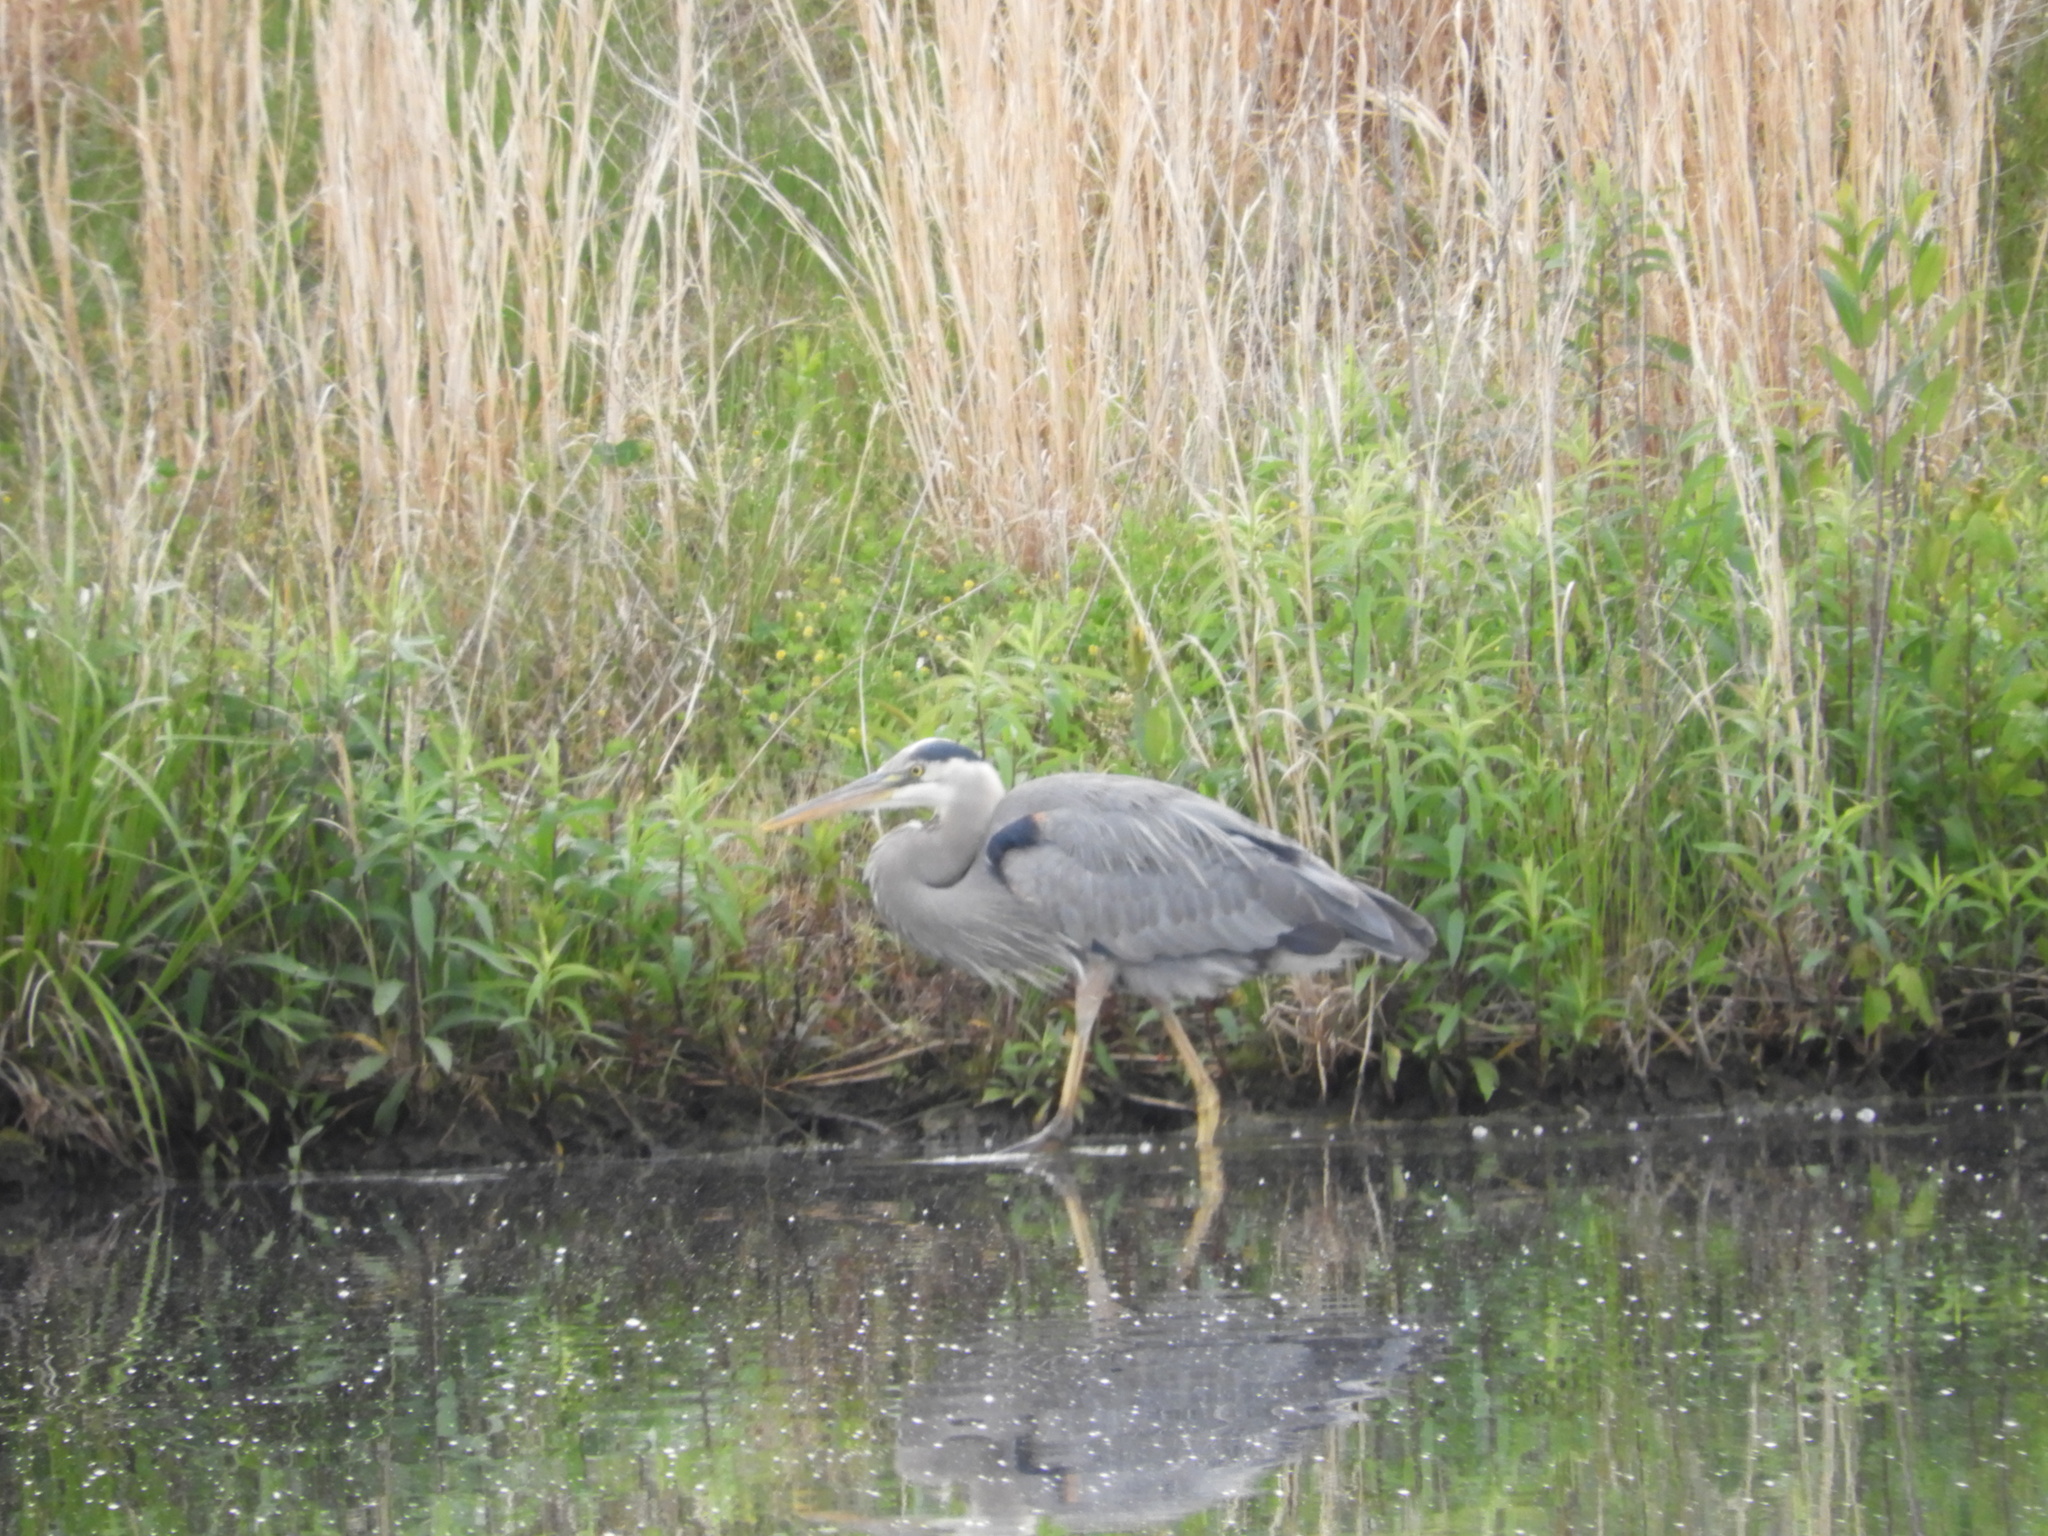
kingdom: Animalia
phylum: Chordata
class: Aves
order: Pelecaniformes
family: Ardeidae
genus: Ardea
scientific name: Ardea herodias
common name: Great blue heron
